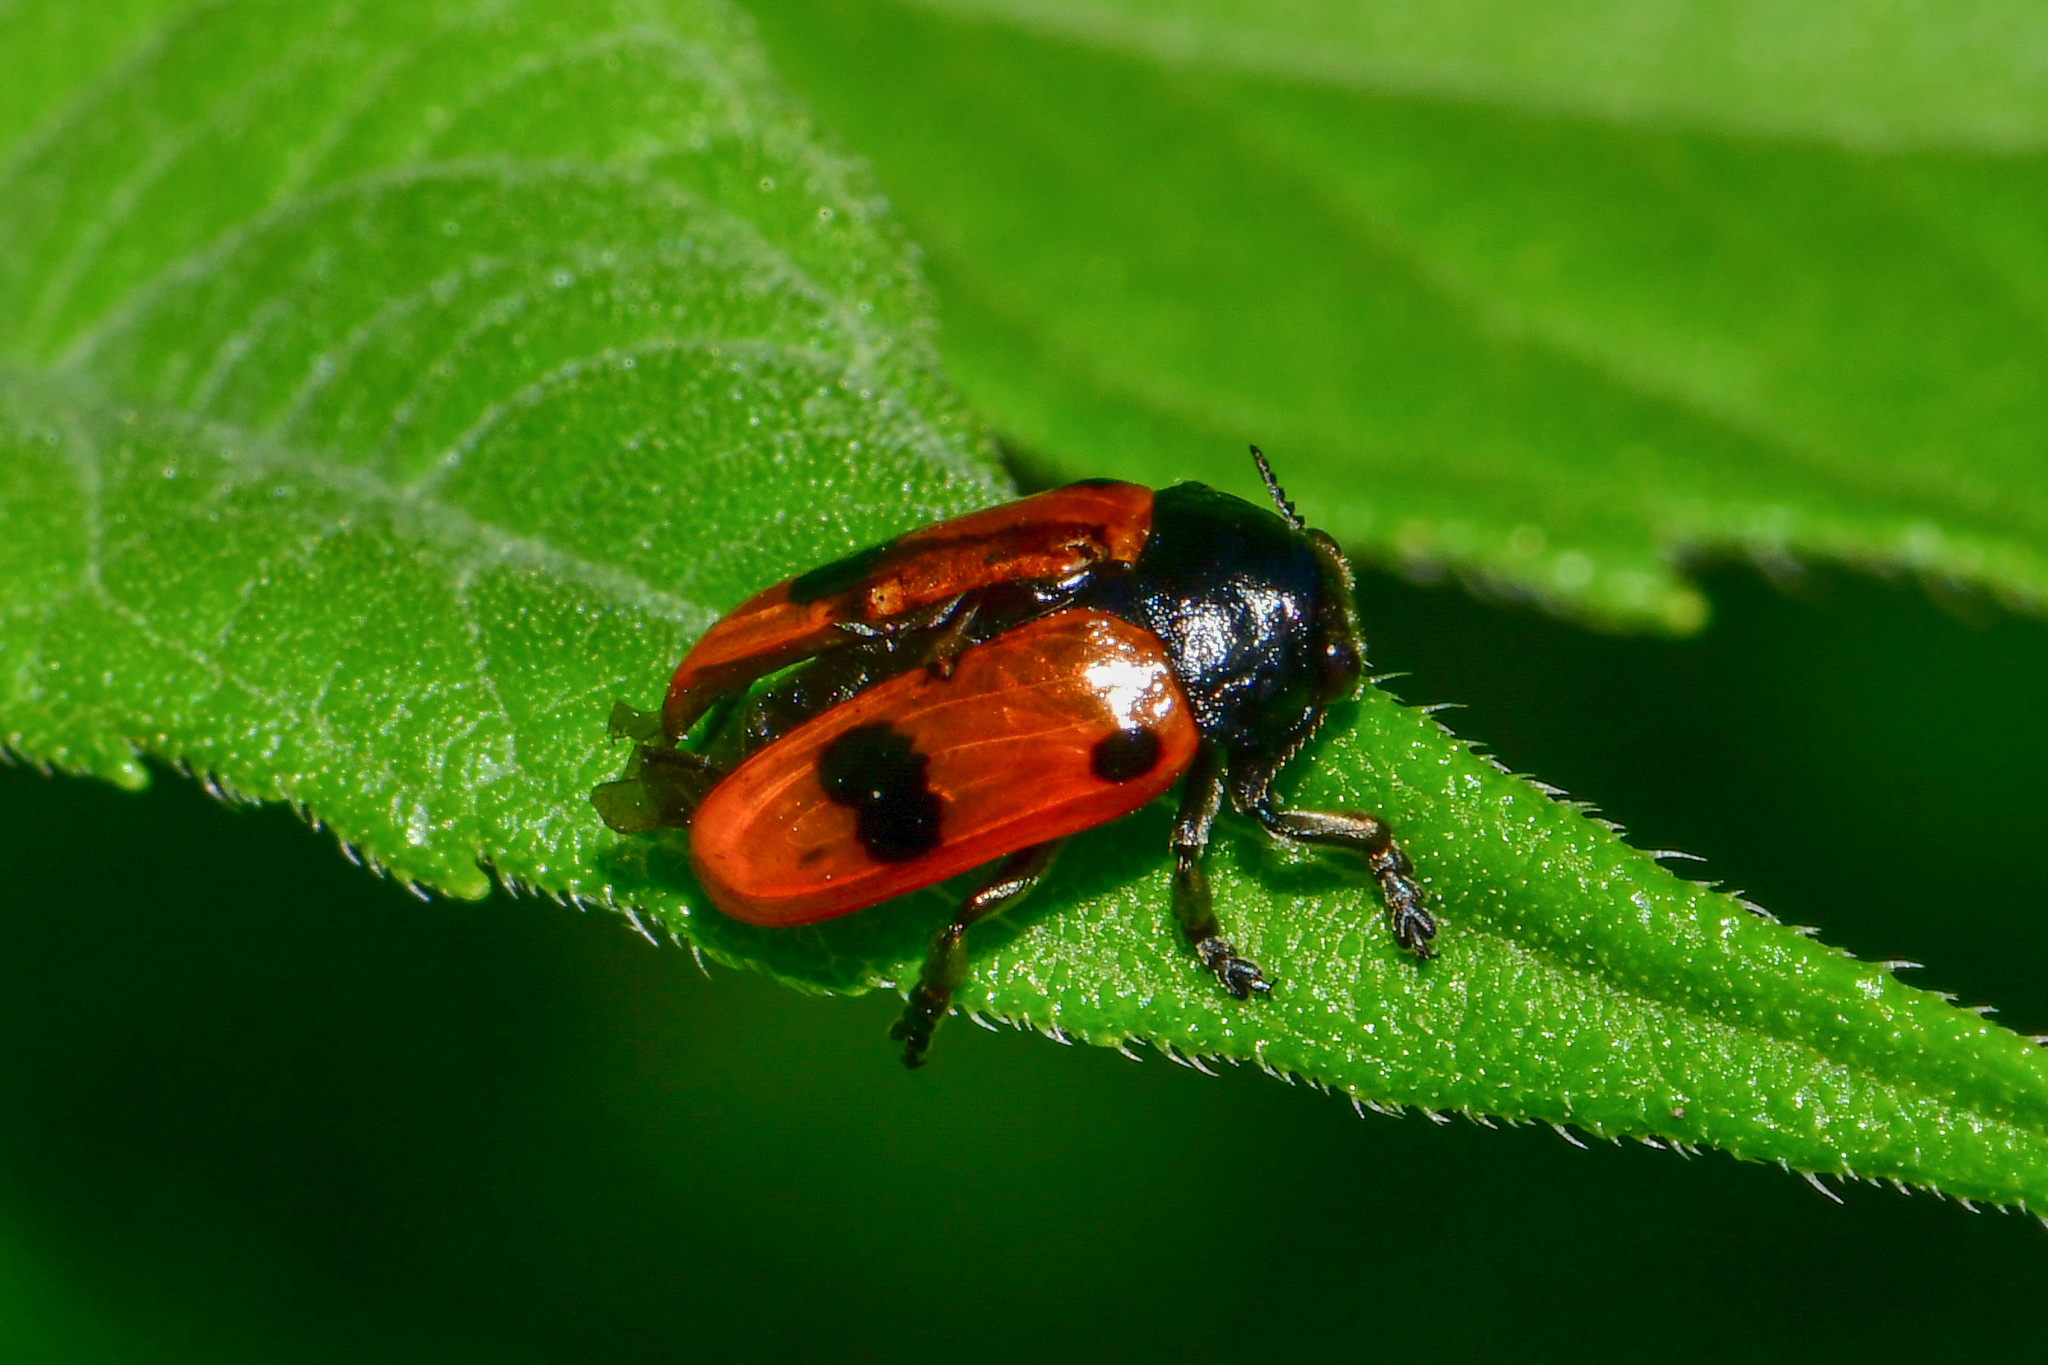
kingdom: Animalia
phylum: Arthropoda
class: Insecta
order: Coleoptera
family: Chrysomelidae
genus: Clytra
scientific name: Clytra quadripunctata
